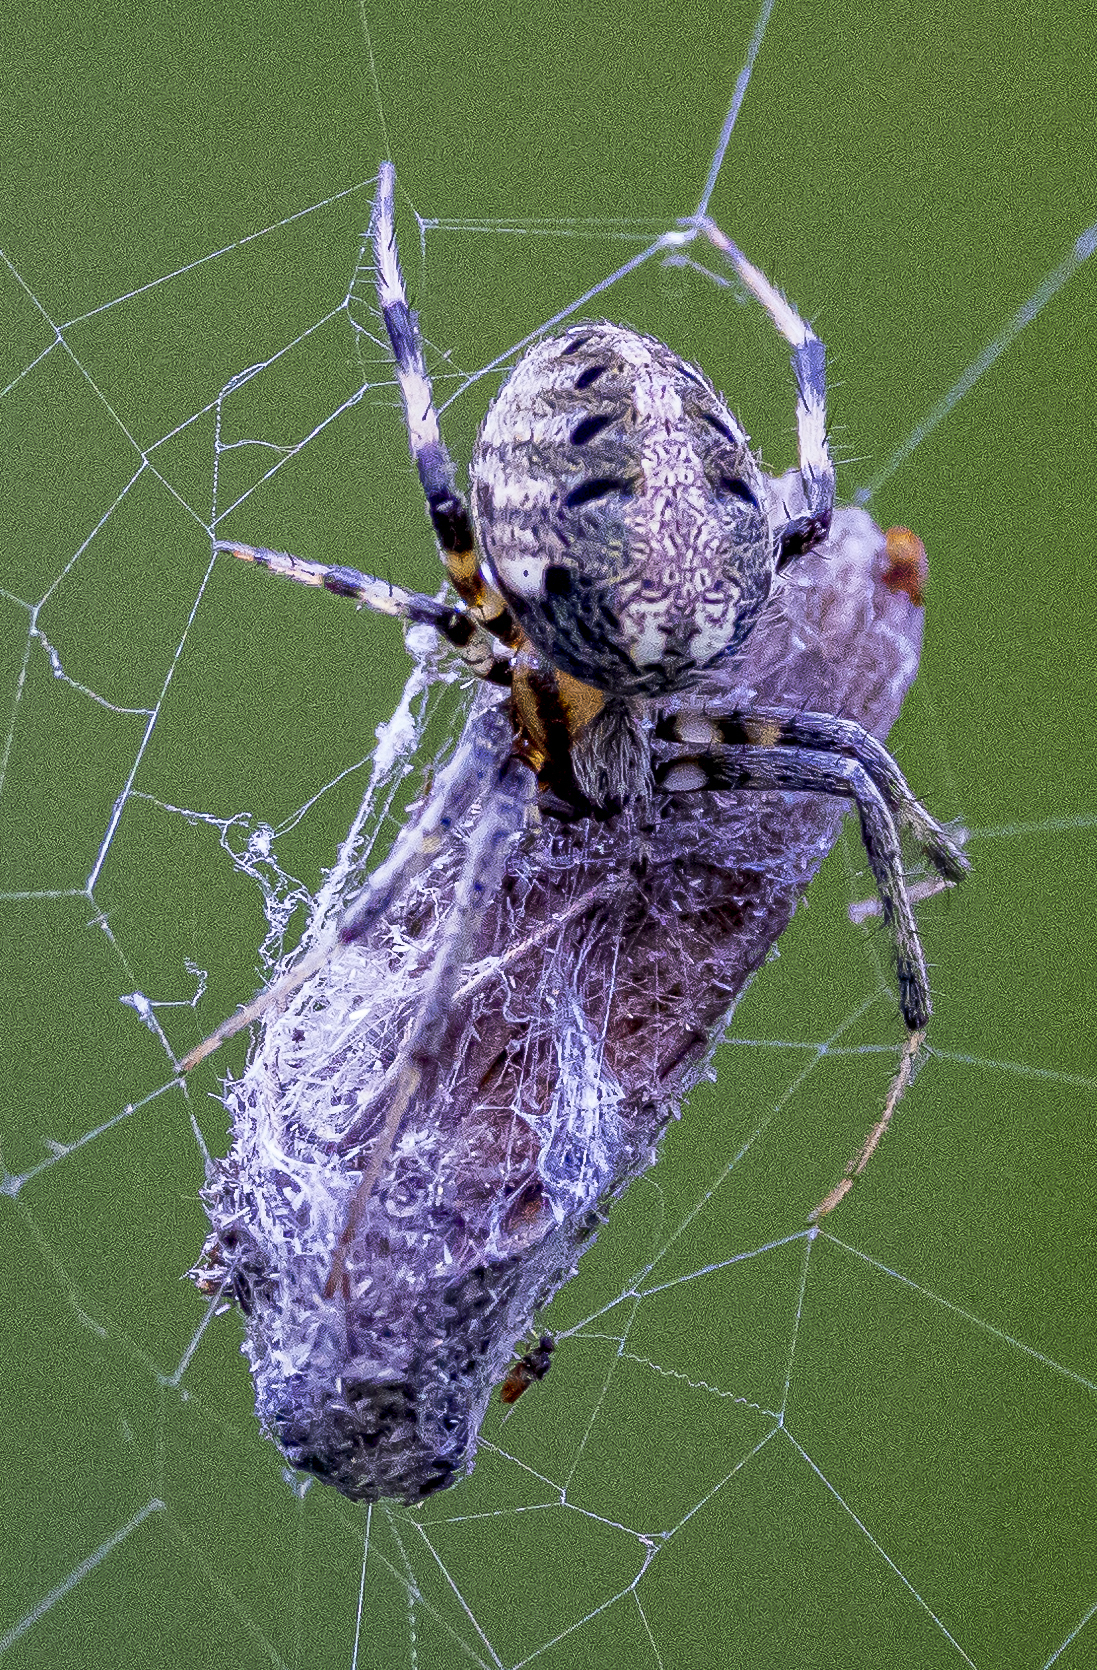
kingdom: Animalia
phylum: Arthropoda
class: Arachnida
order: Araneae
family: Araneidae
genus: Neoscona
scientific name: Neoscona arabesca
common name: Orb weavers
